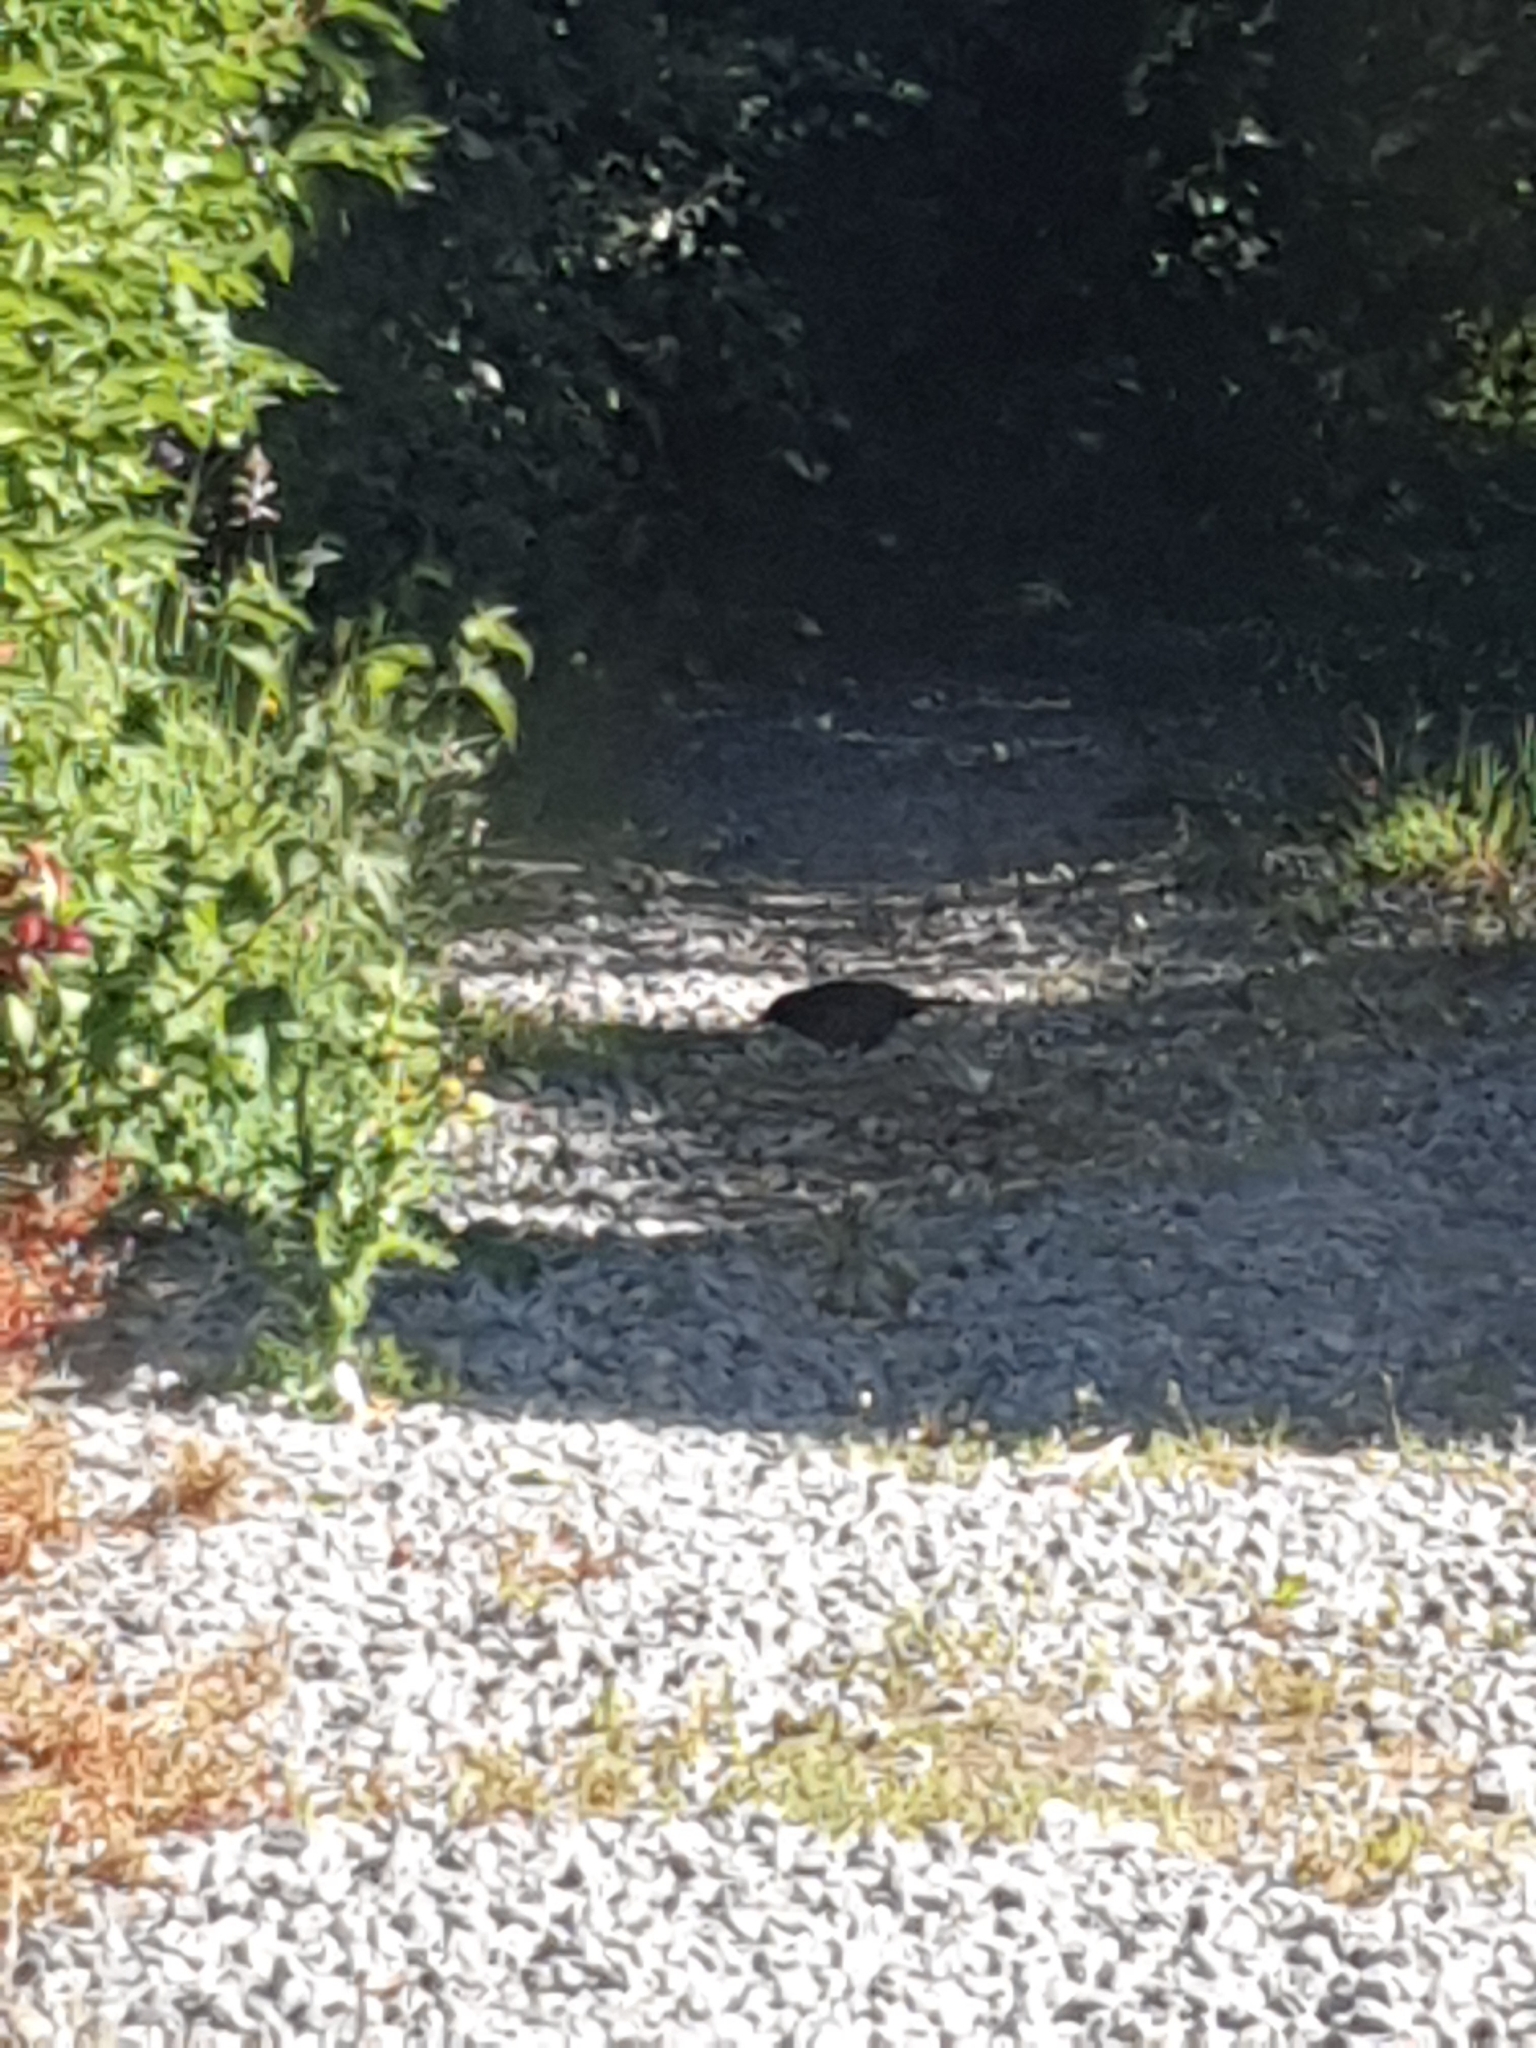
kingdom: Animalia
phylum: Chordata
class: Aves
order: Passeriformes
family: Turdidae
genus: Turdus
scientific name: Turdus merula
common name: Common blackbird
